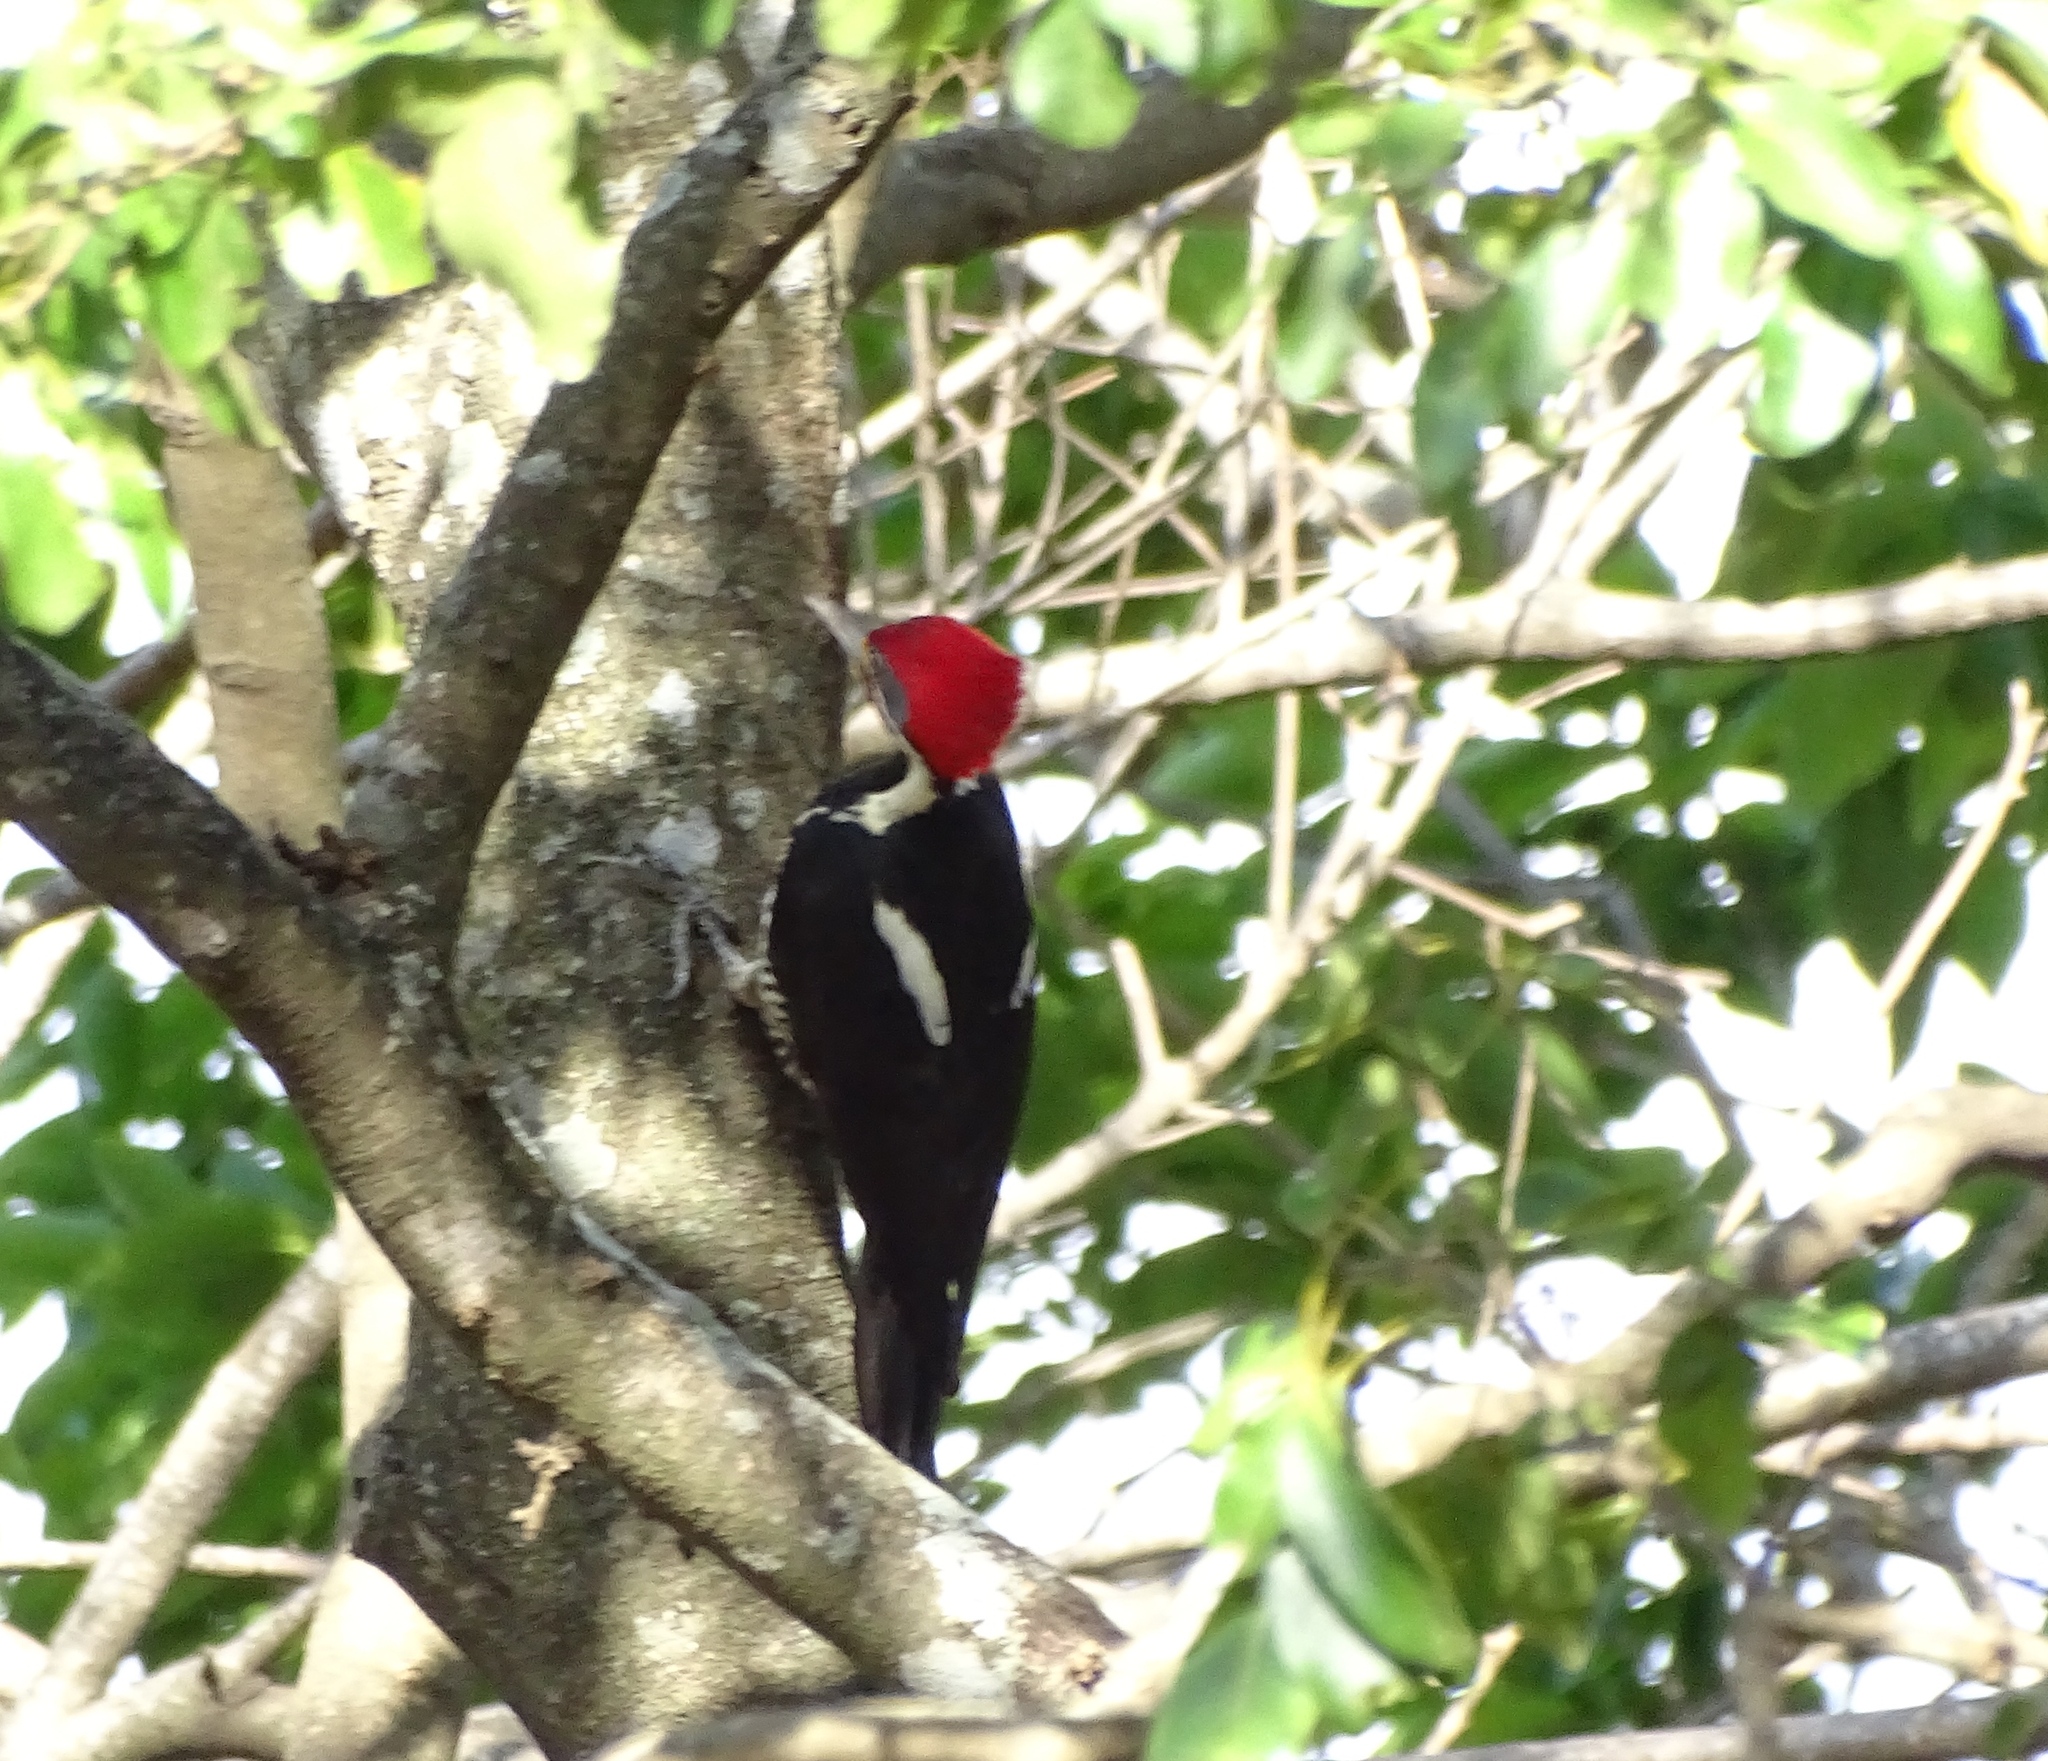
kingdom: Animalia
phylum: Chordata
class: Aves
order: Piciformes
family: Picidae
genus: Dryocopus
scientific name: Dryocopus lineatus
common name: Lineated woodpecker
